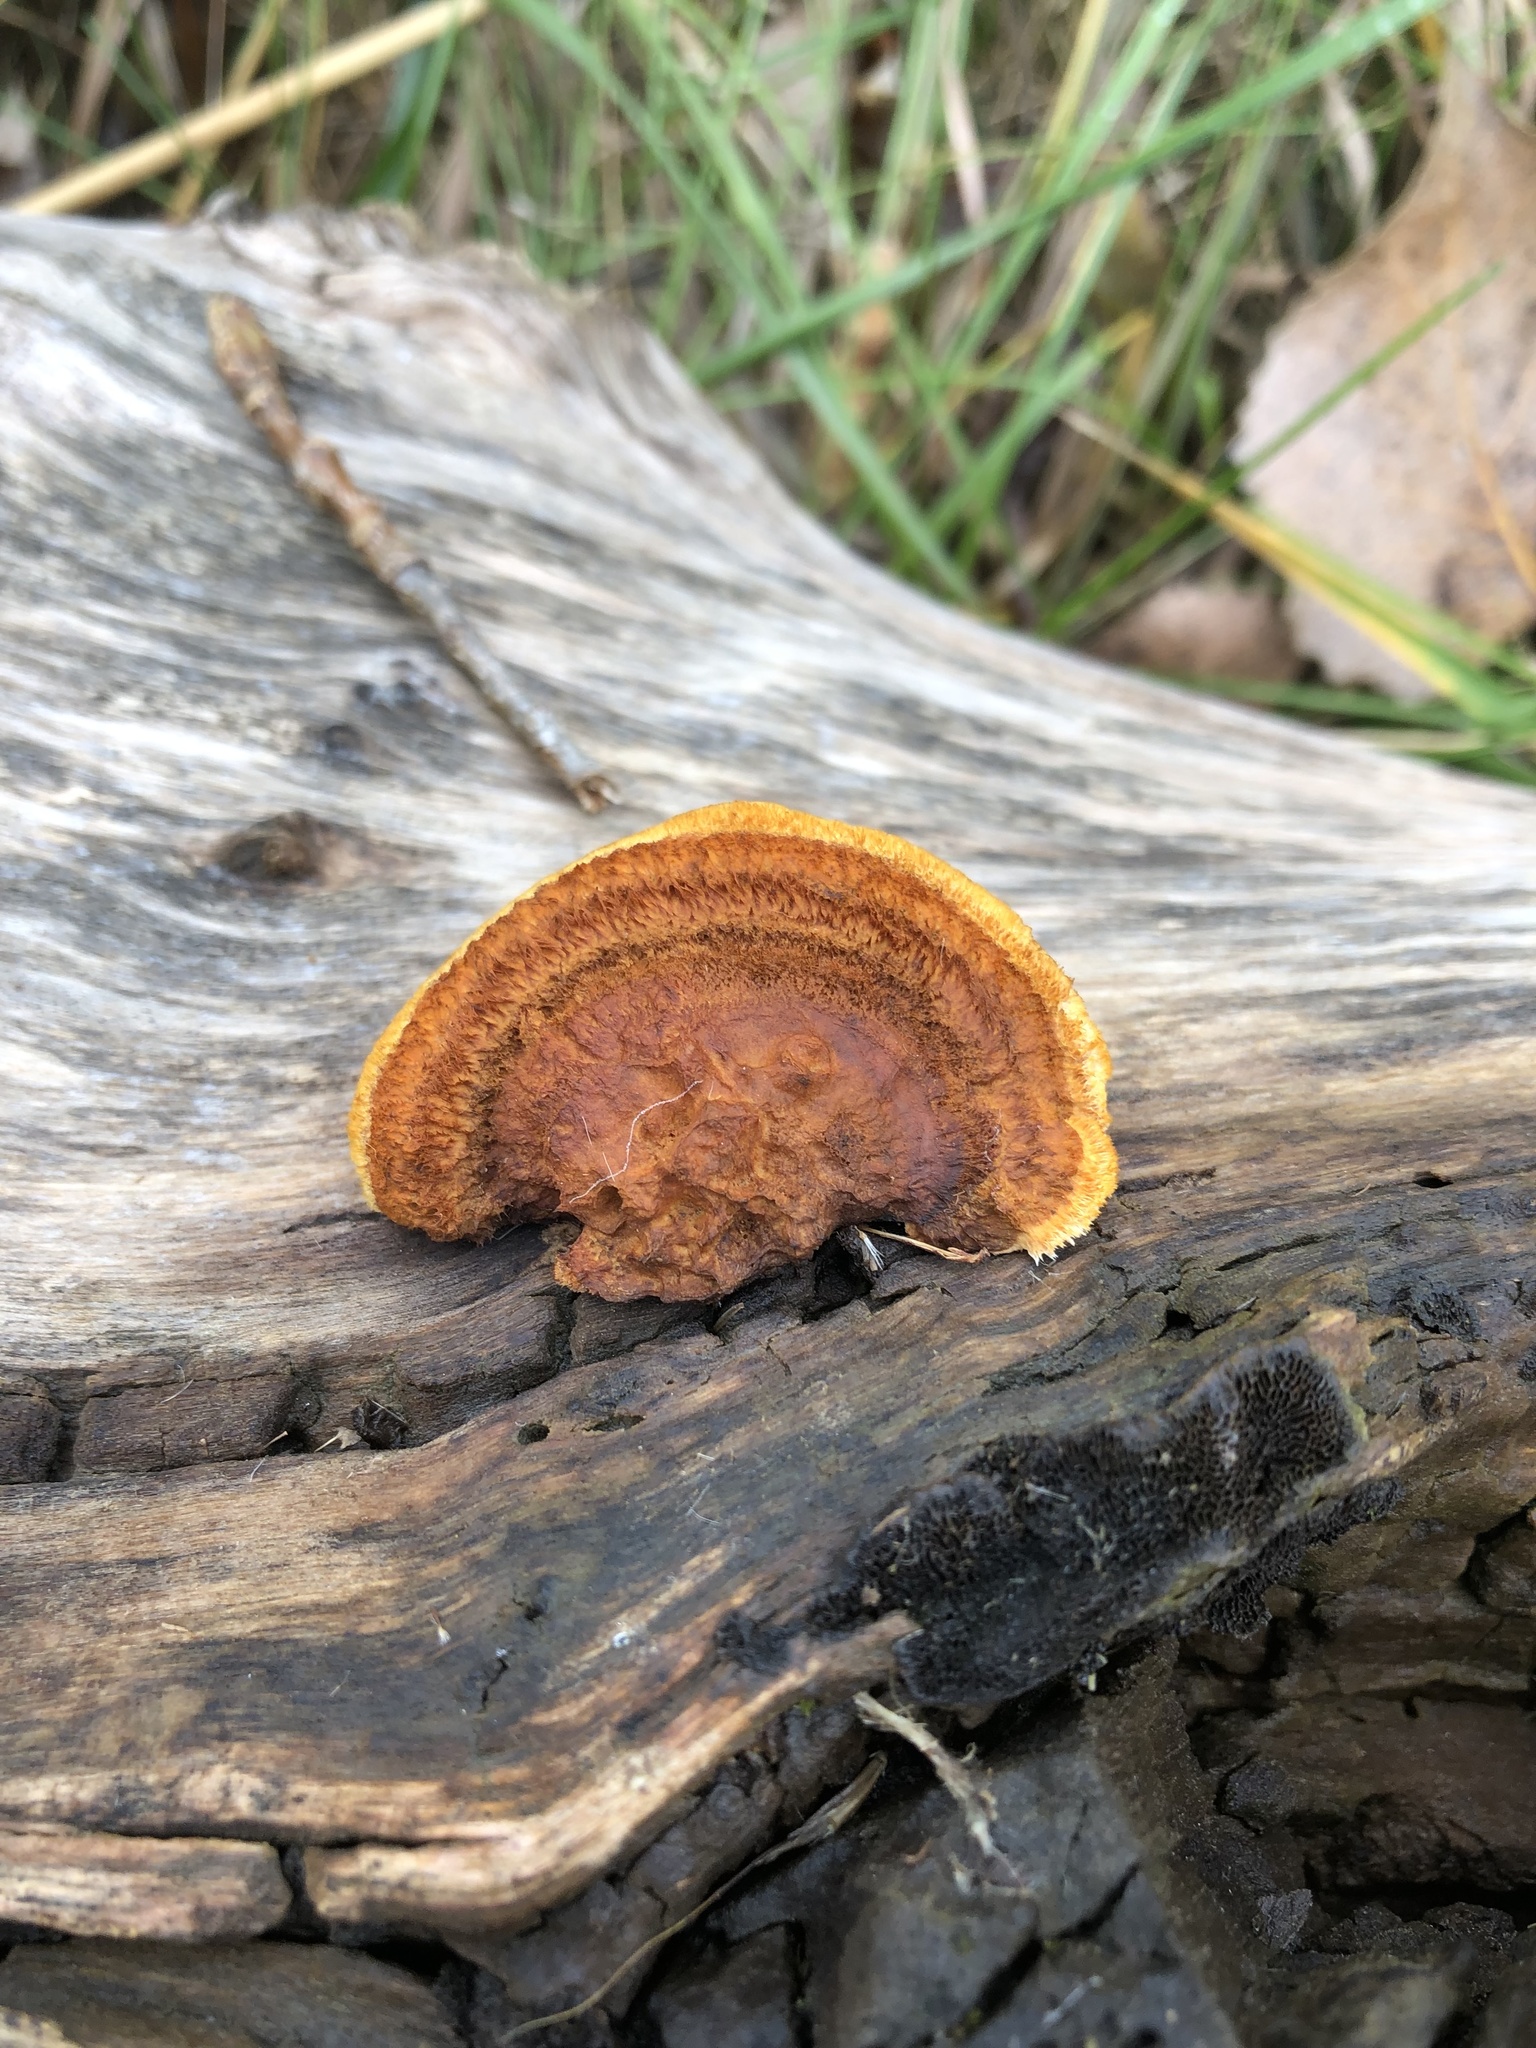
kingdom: Fungi
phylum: Basidiomycota
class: Agaricomycetes
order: Gloeophyllales
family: Gloeophyllaceae
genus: Gloeophyllum
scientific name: Gloeophyllum sepiarium
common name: Conifer mazegill
